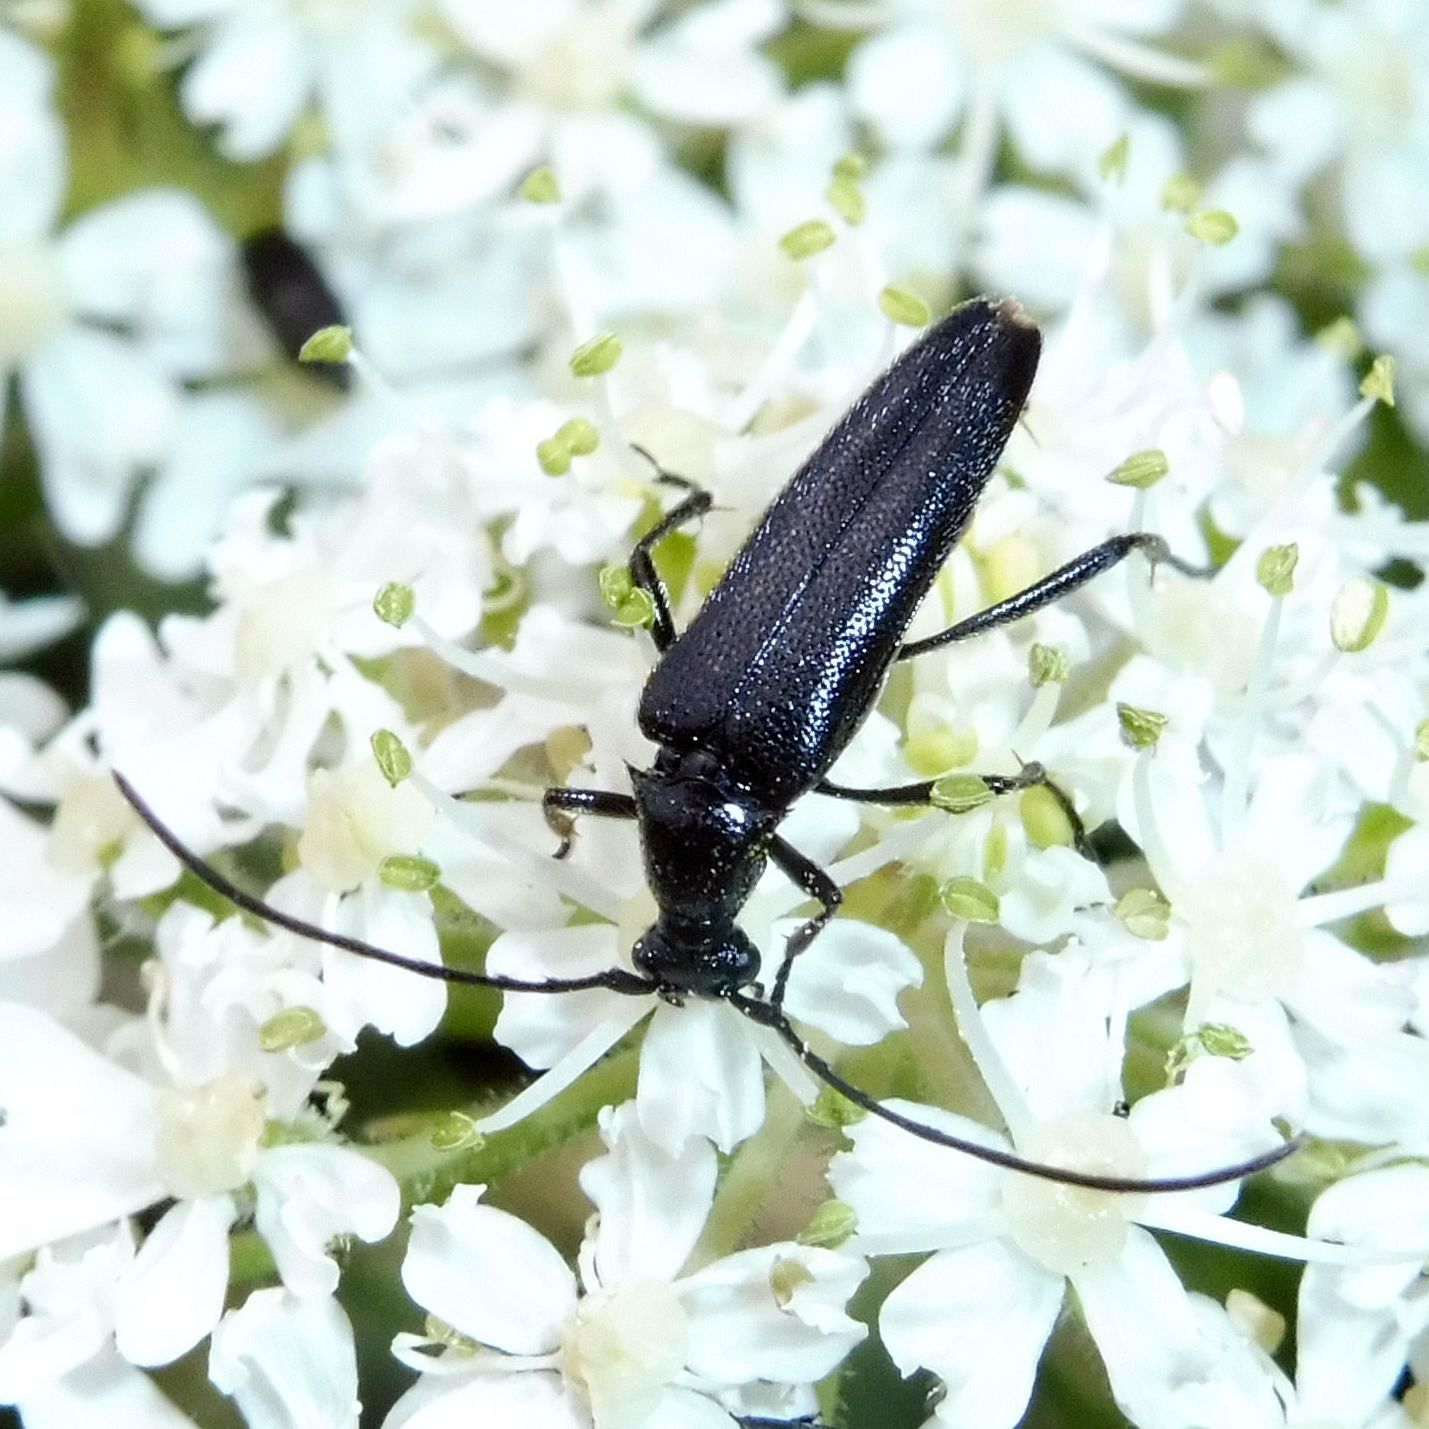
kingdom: Animalia
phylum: Arthropoda
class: Insecta
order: Coleoptera
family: Cerambycidae
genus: Stenurella
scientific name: Stenurella nigra
